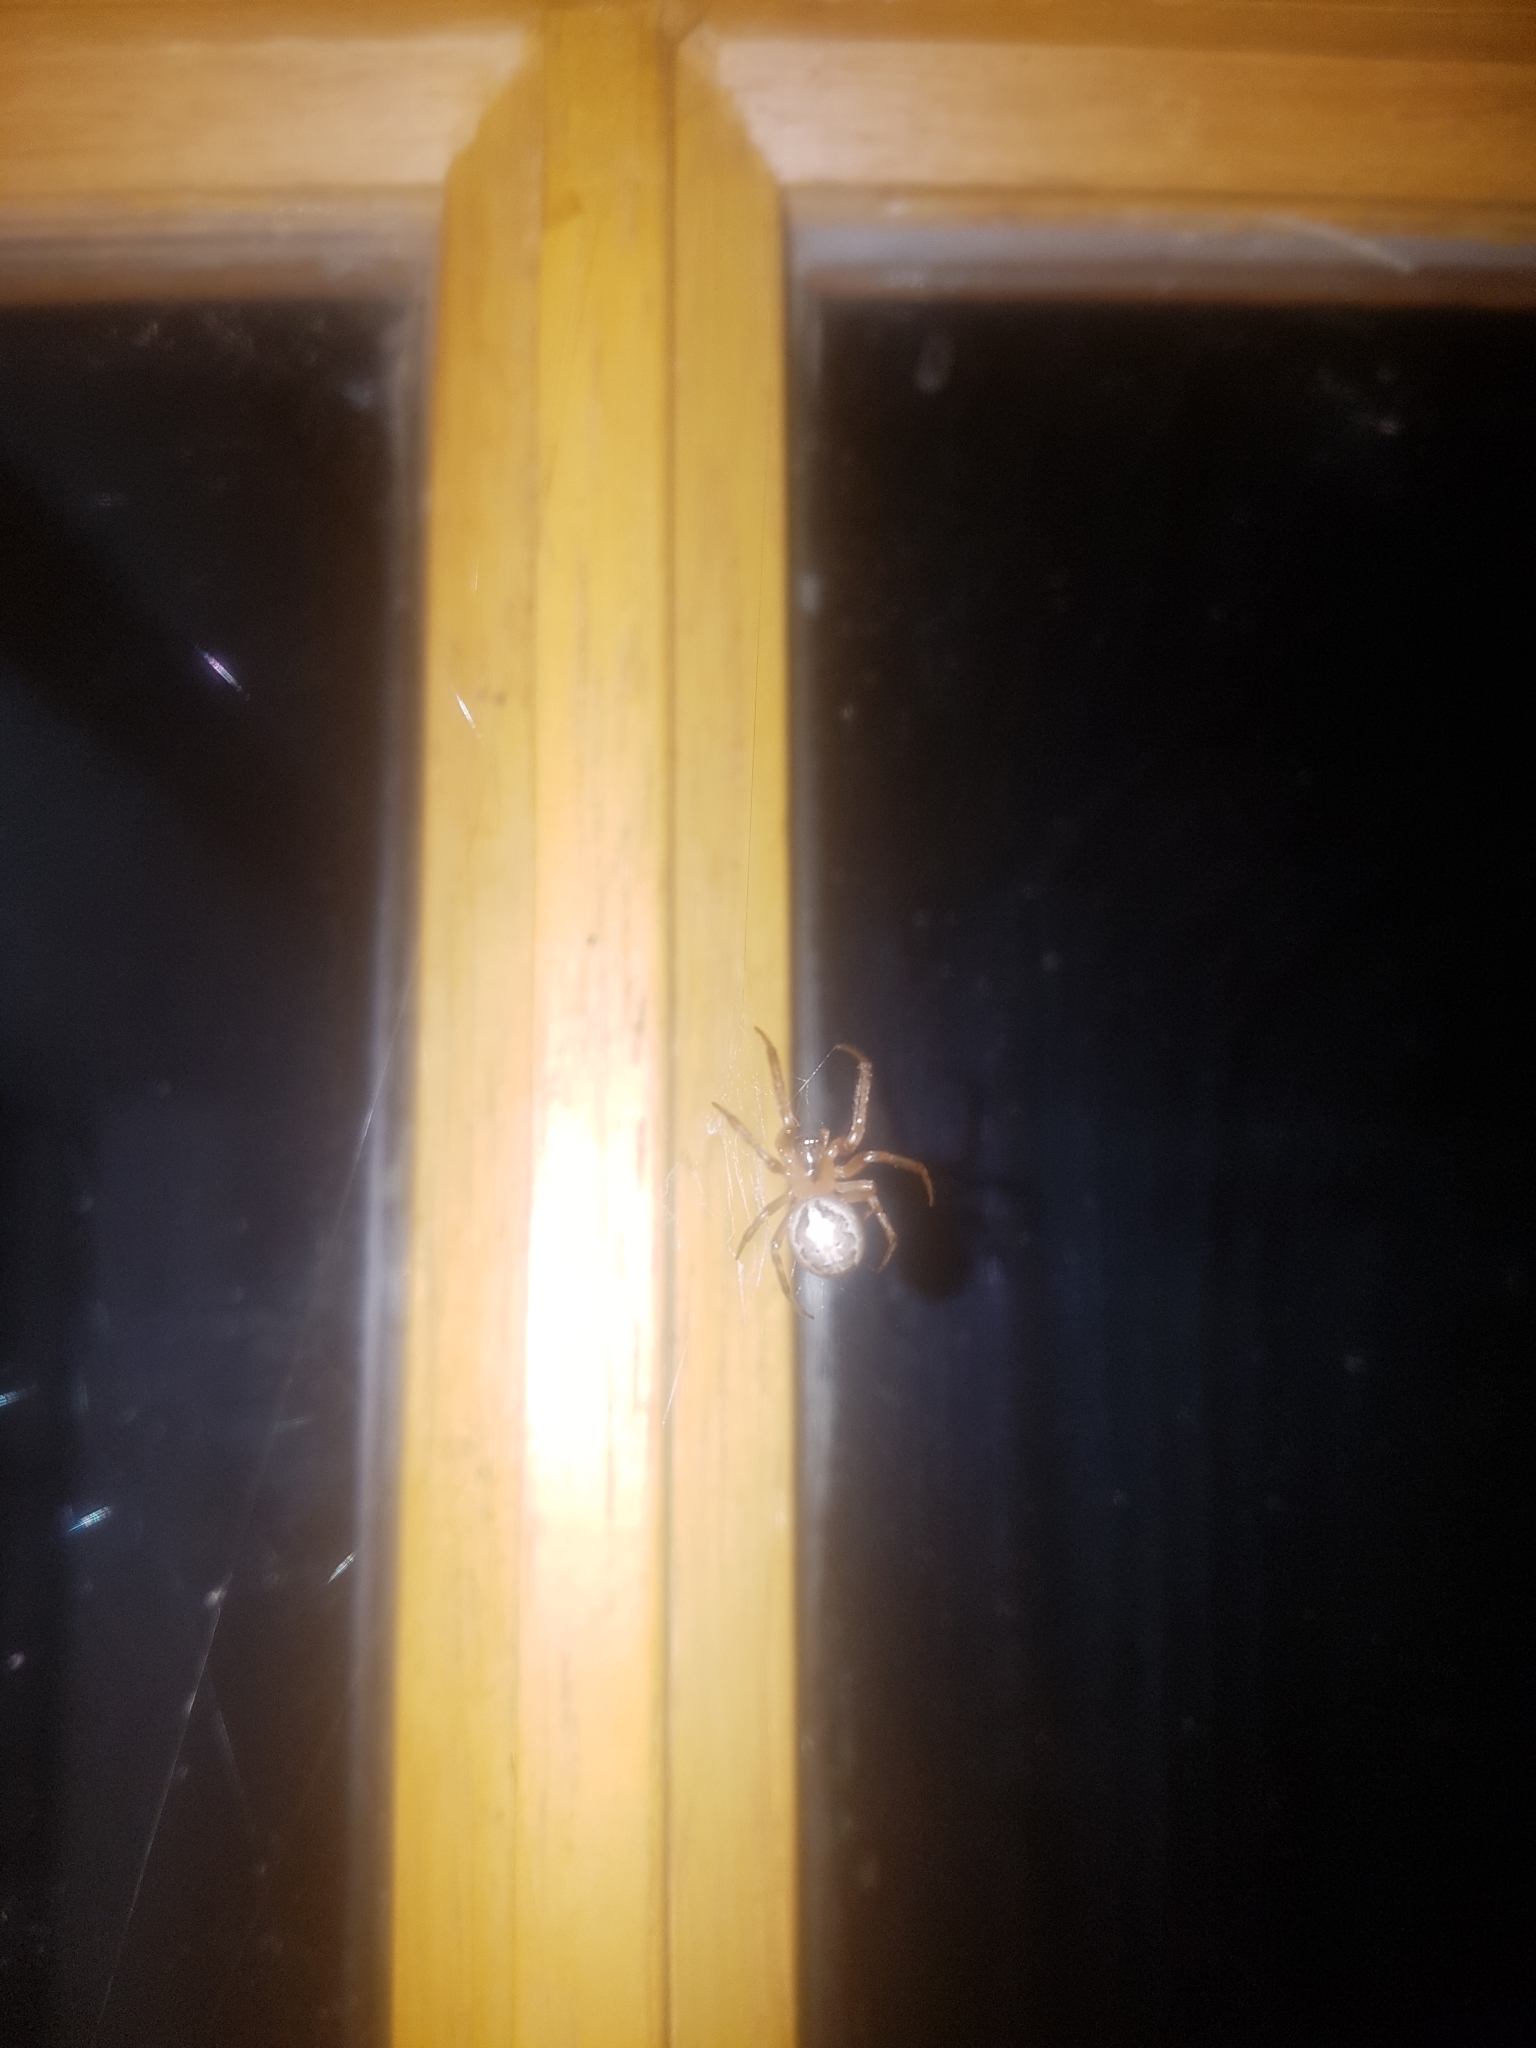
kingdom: Animalia
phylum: Arthropoda
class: Arachnida
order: Araneae
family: Araneidae
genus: Zygiella
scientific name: Zygiella x-notata
